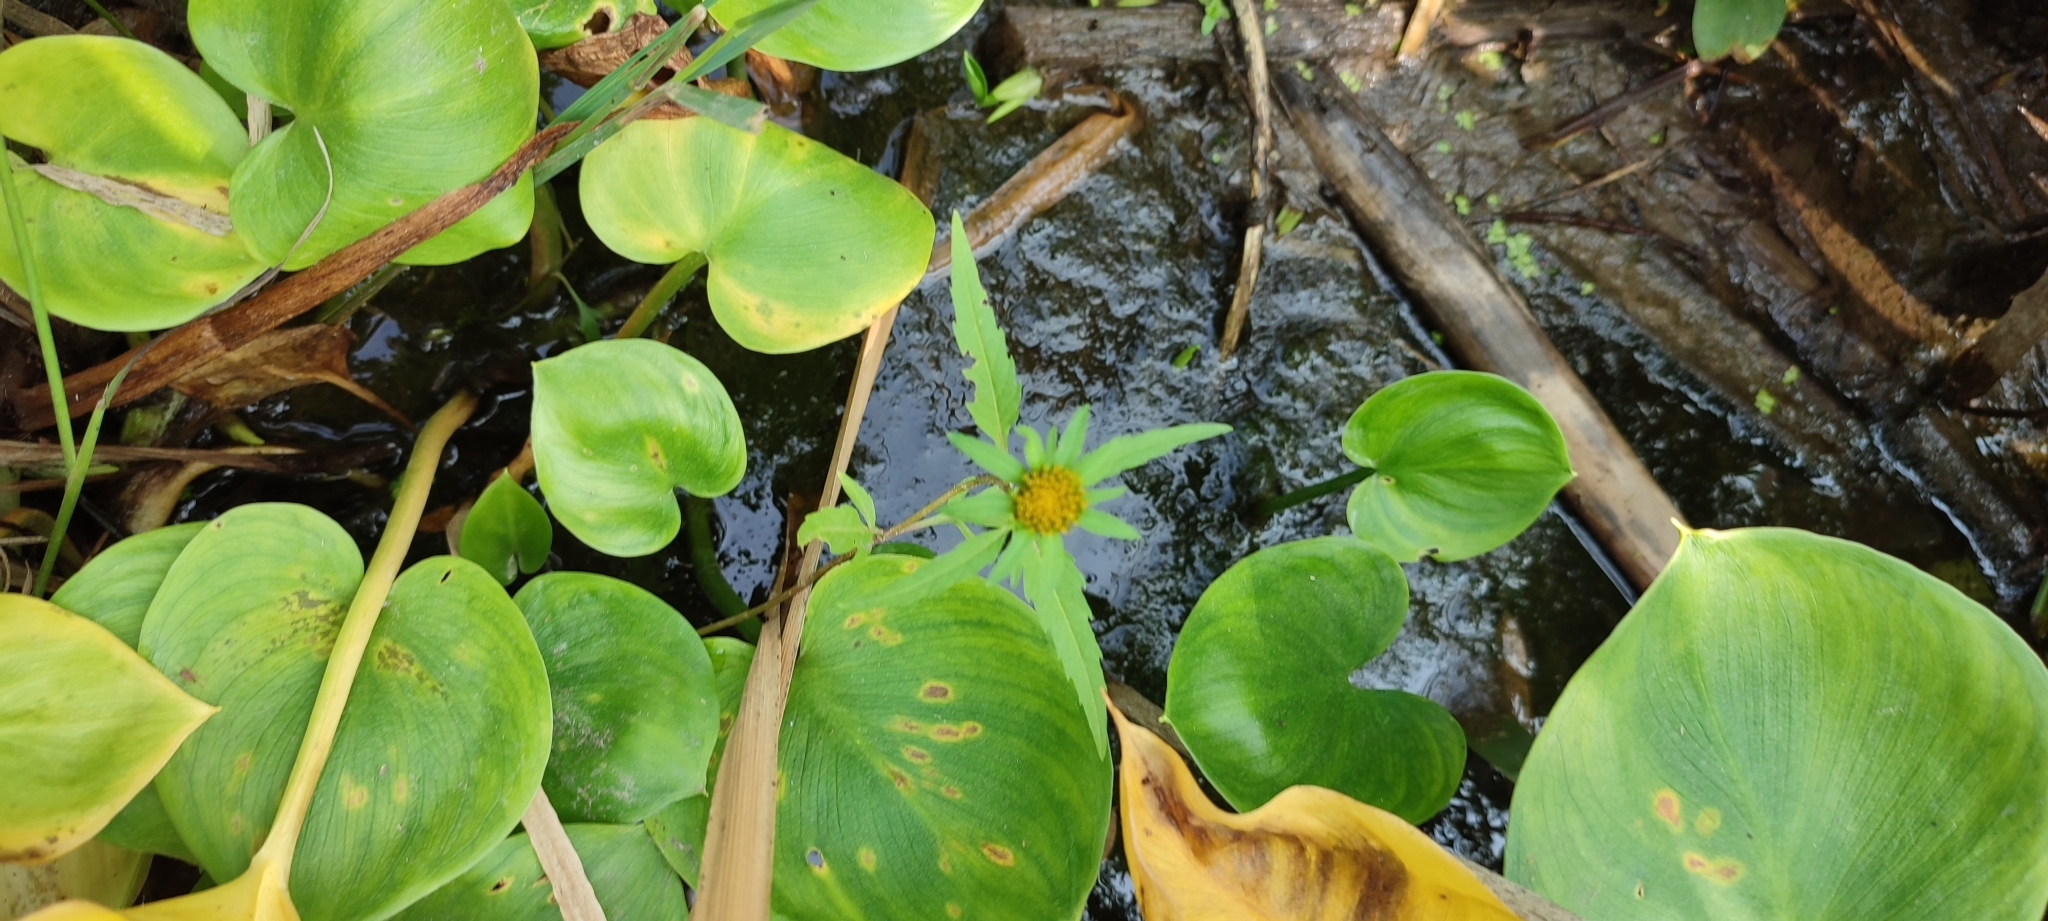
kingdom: Plantae
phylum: Tracheophyta
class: Magnoliopsida
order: Asterales
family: Asteraceae
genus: Bidens
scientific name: Bidens radiata
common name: Radiating bur-marigold
